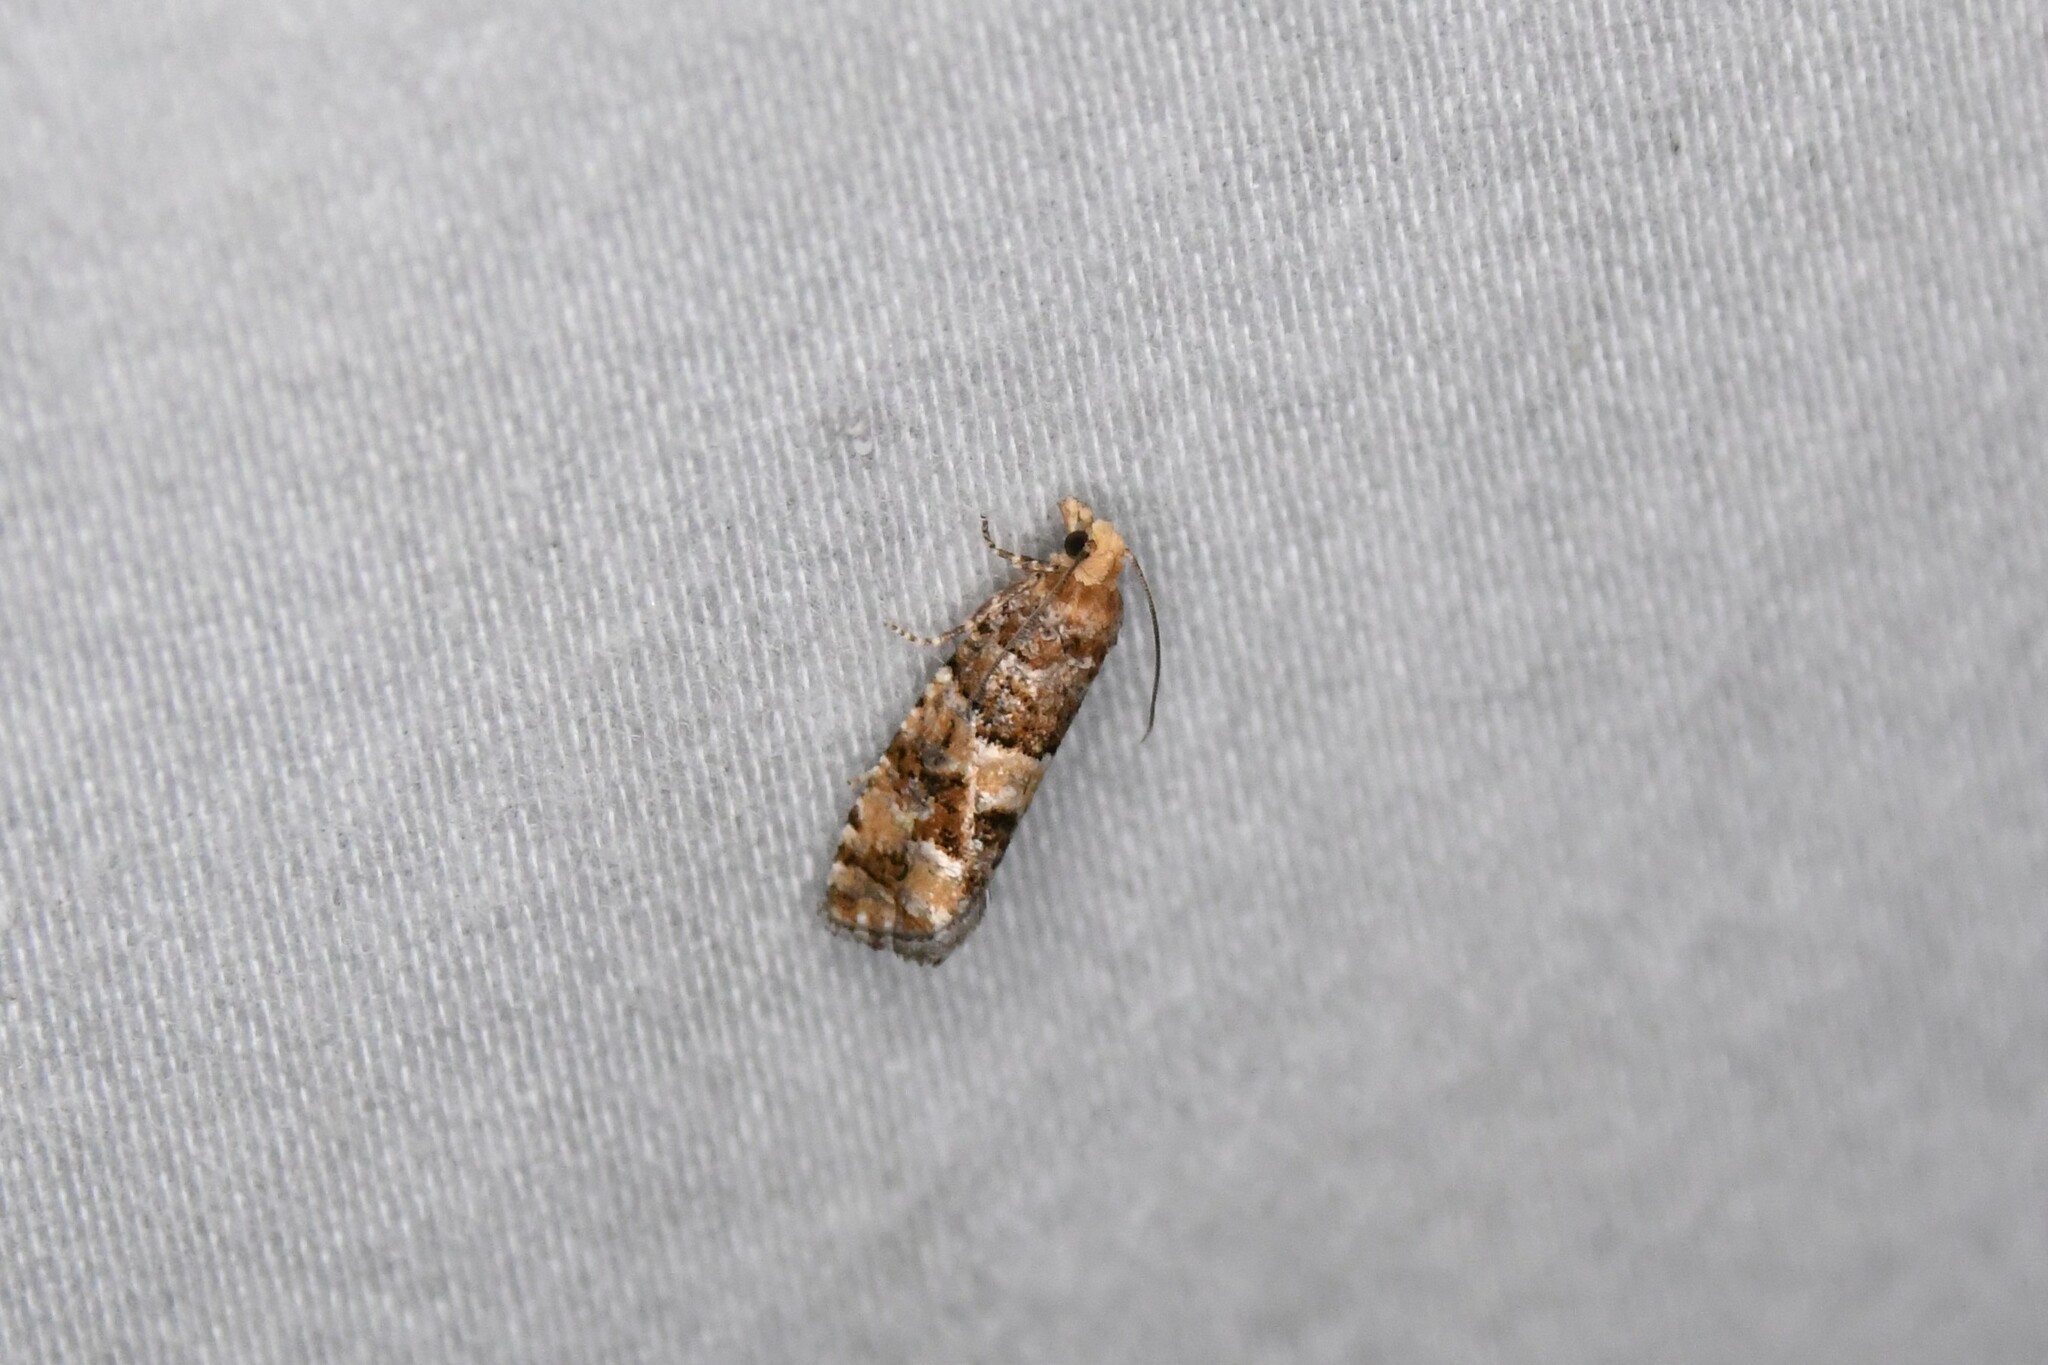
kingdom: Animalia
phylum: Arthropoda
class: Insecta
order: Lepidoptera
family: Tortricidae
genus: Eucopina
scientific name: Eucopina tocullionana
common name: White pinecone borer moth
